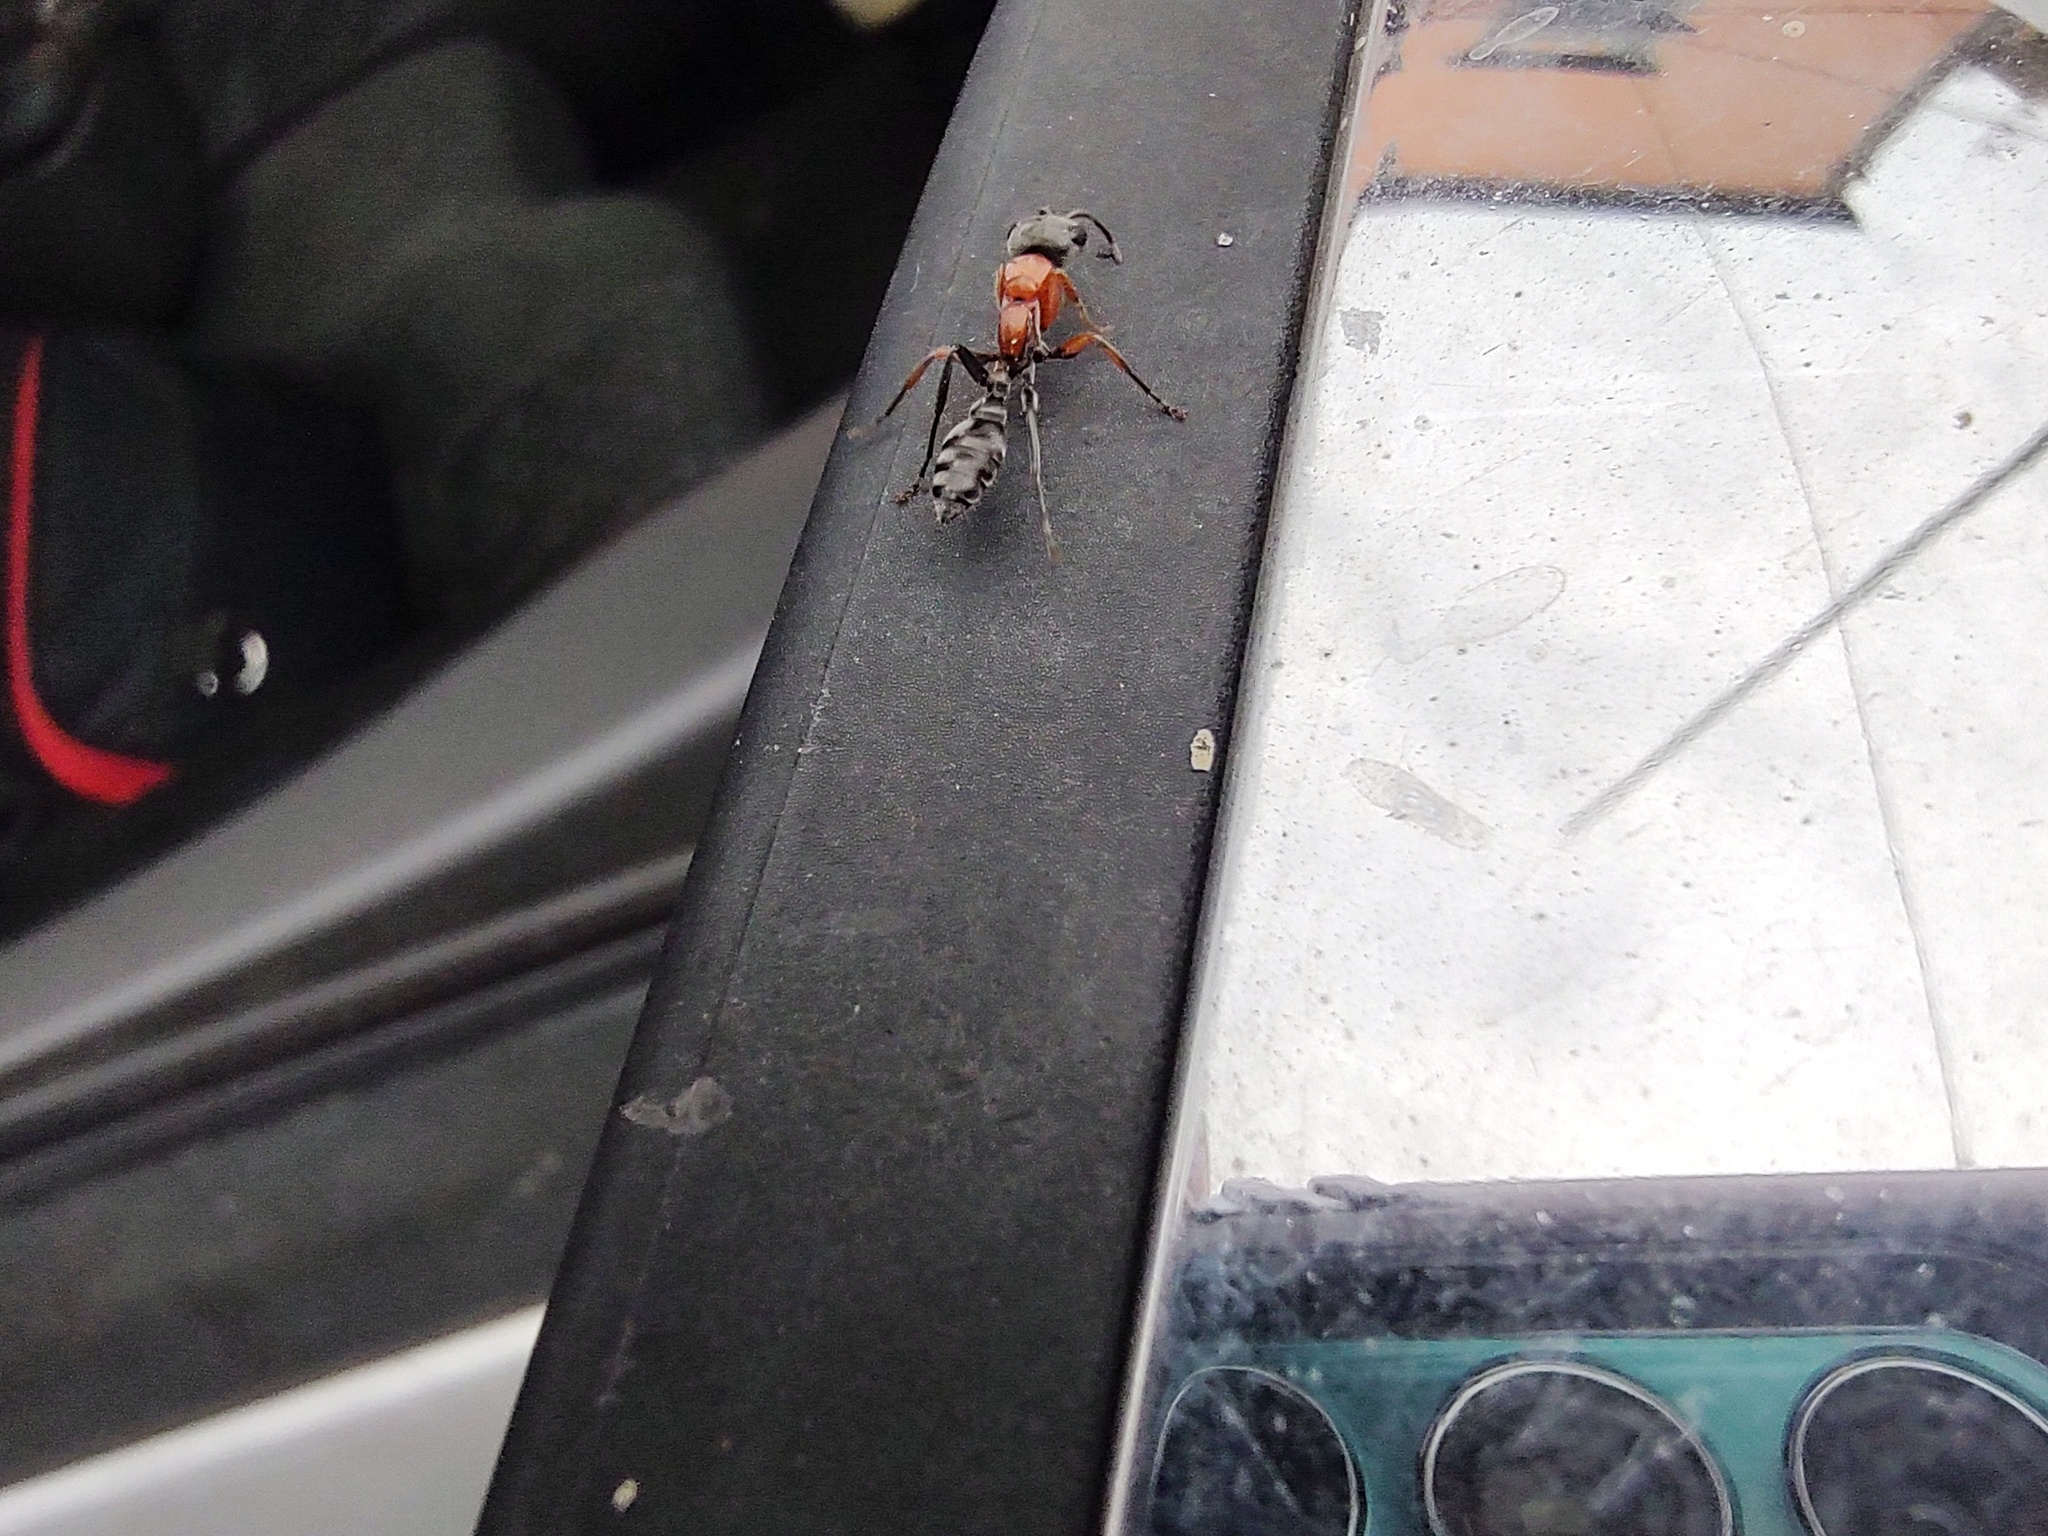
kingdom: Animalia
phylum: Arthropoda
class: Insecta
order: Hymenoptera
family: Formicidae
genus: Pseudomyrmex
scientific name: Pseudomyrmex gracilis
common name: Graceful twig ant
